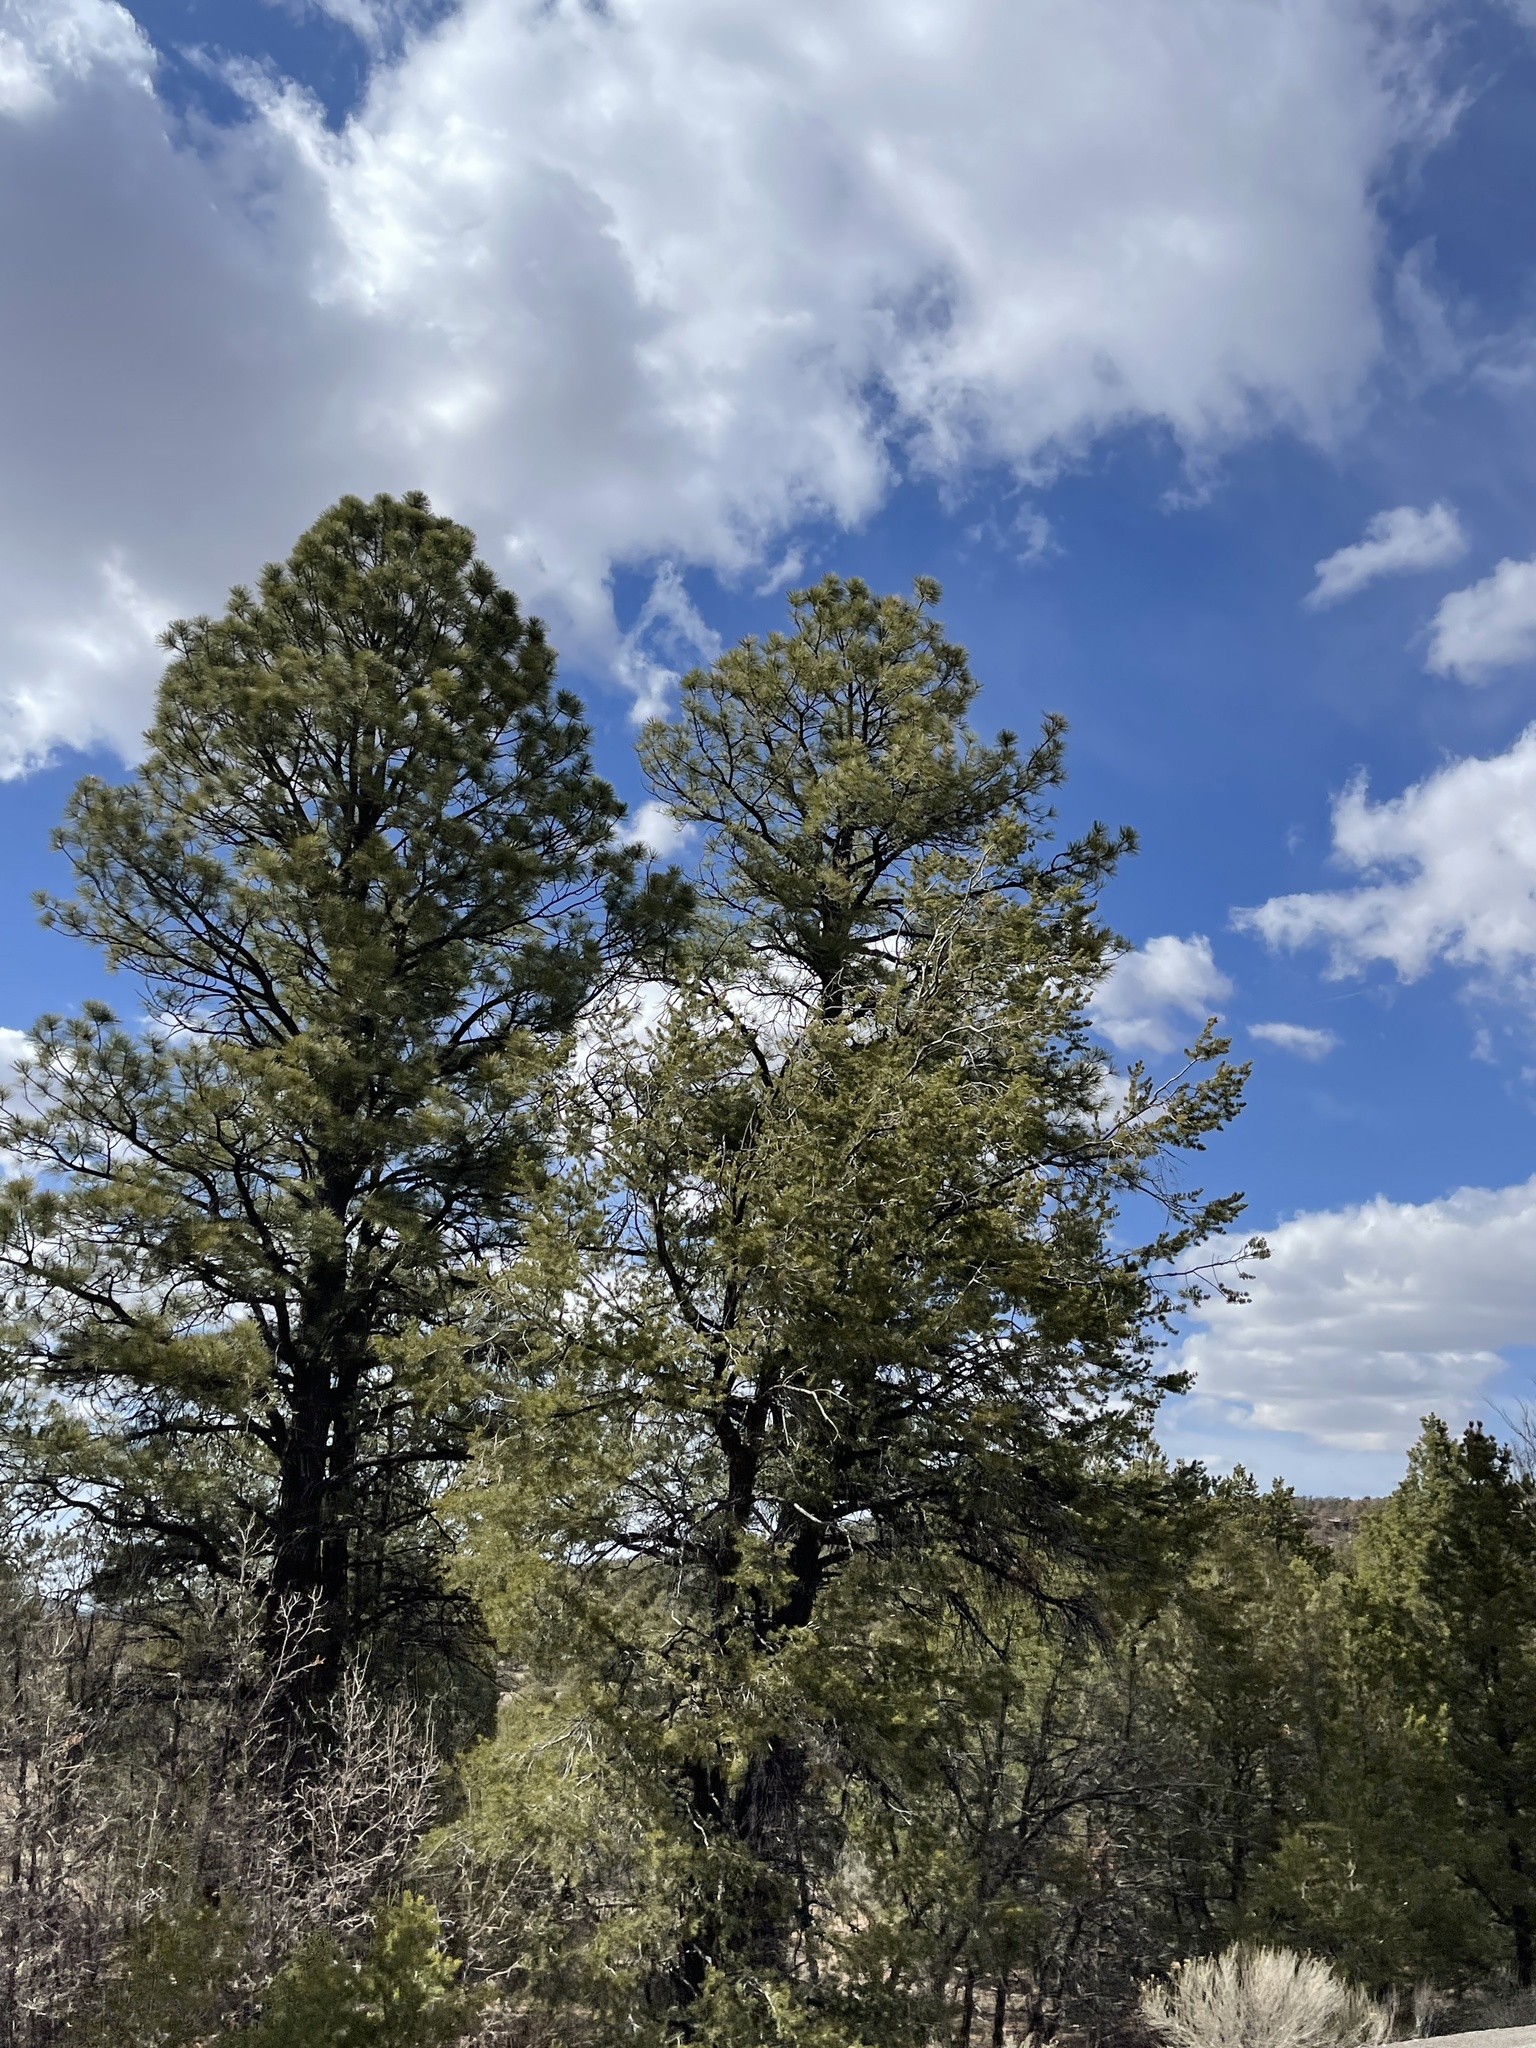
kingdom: Plantae
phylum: Tracheophyta
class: Pinopsida
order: Pinales
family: Pinaceae
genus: Pinus
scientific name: Pinus ponderosa
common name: Western yellow-pine
